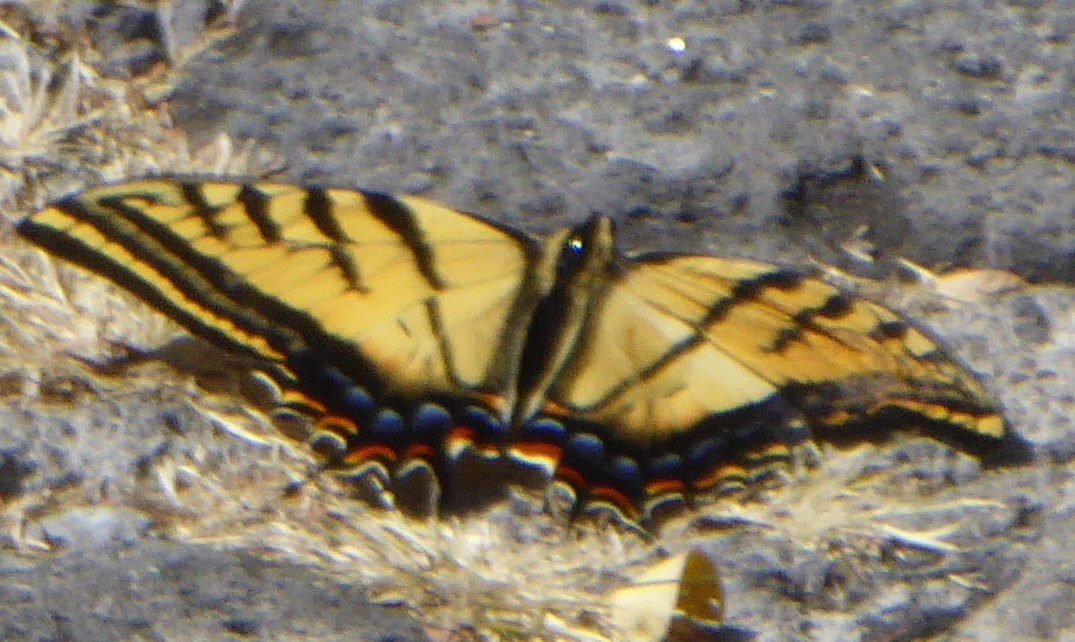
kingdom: Animalia
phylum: Arthropoda
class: Insecta
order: Lepidoptera
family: Papilionidae
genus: Papilio
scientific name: Papilio multicaudata
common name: Two-tailed tiger swallowtail
